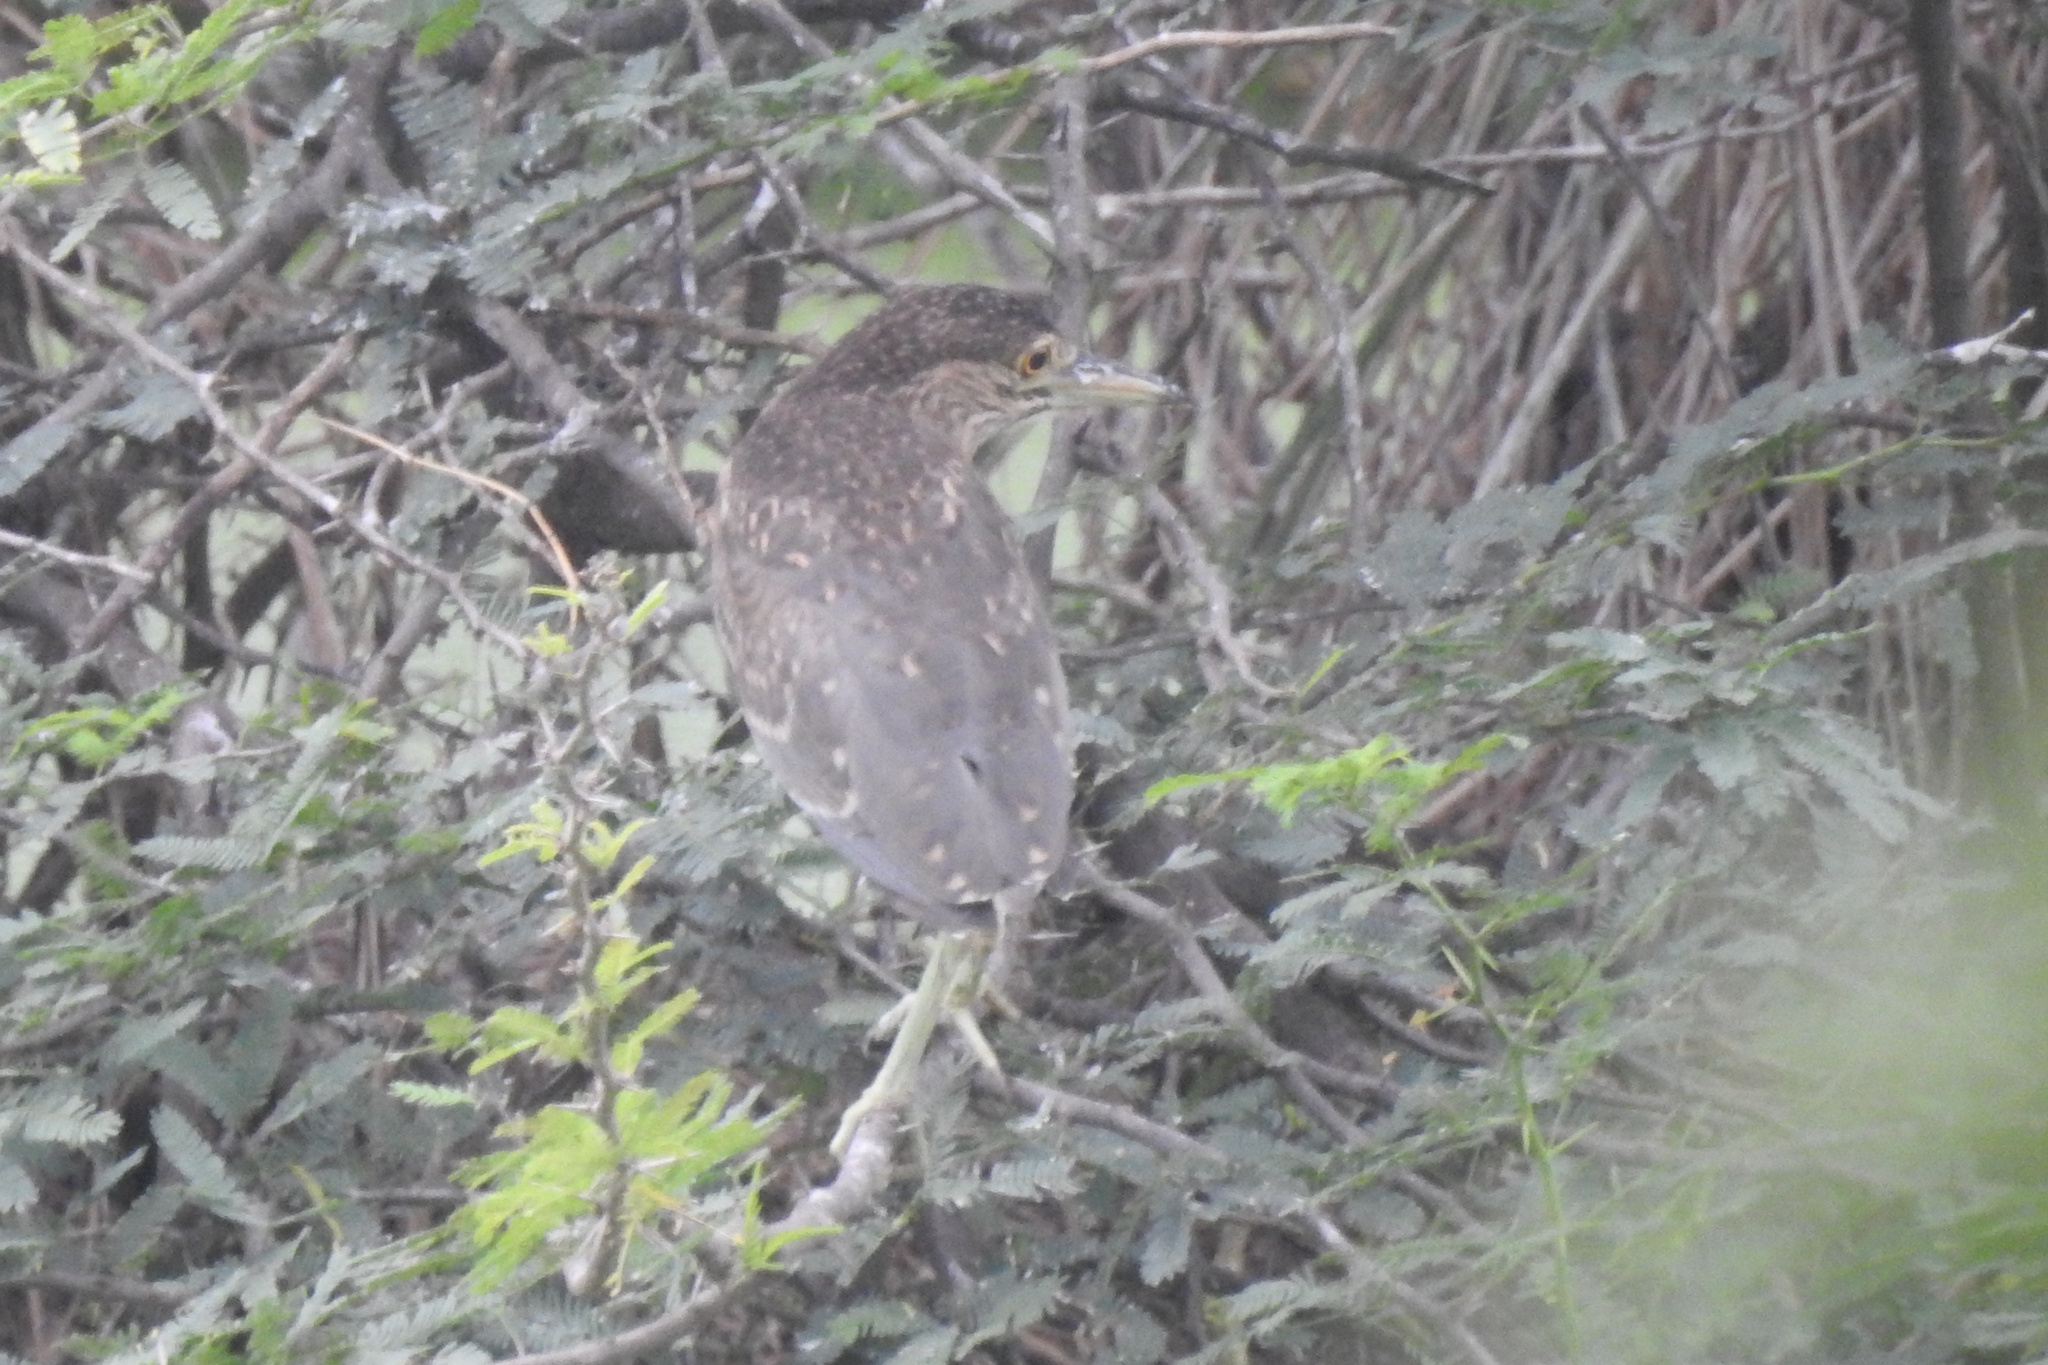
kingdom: Animalia
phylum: Chordata
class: Aves
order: Pelecaniformes
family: Ardeidae
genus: Nycticorax
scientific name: Nycticorax nycticorax
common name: Black-crowned night heron
